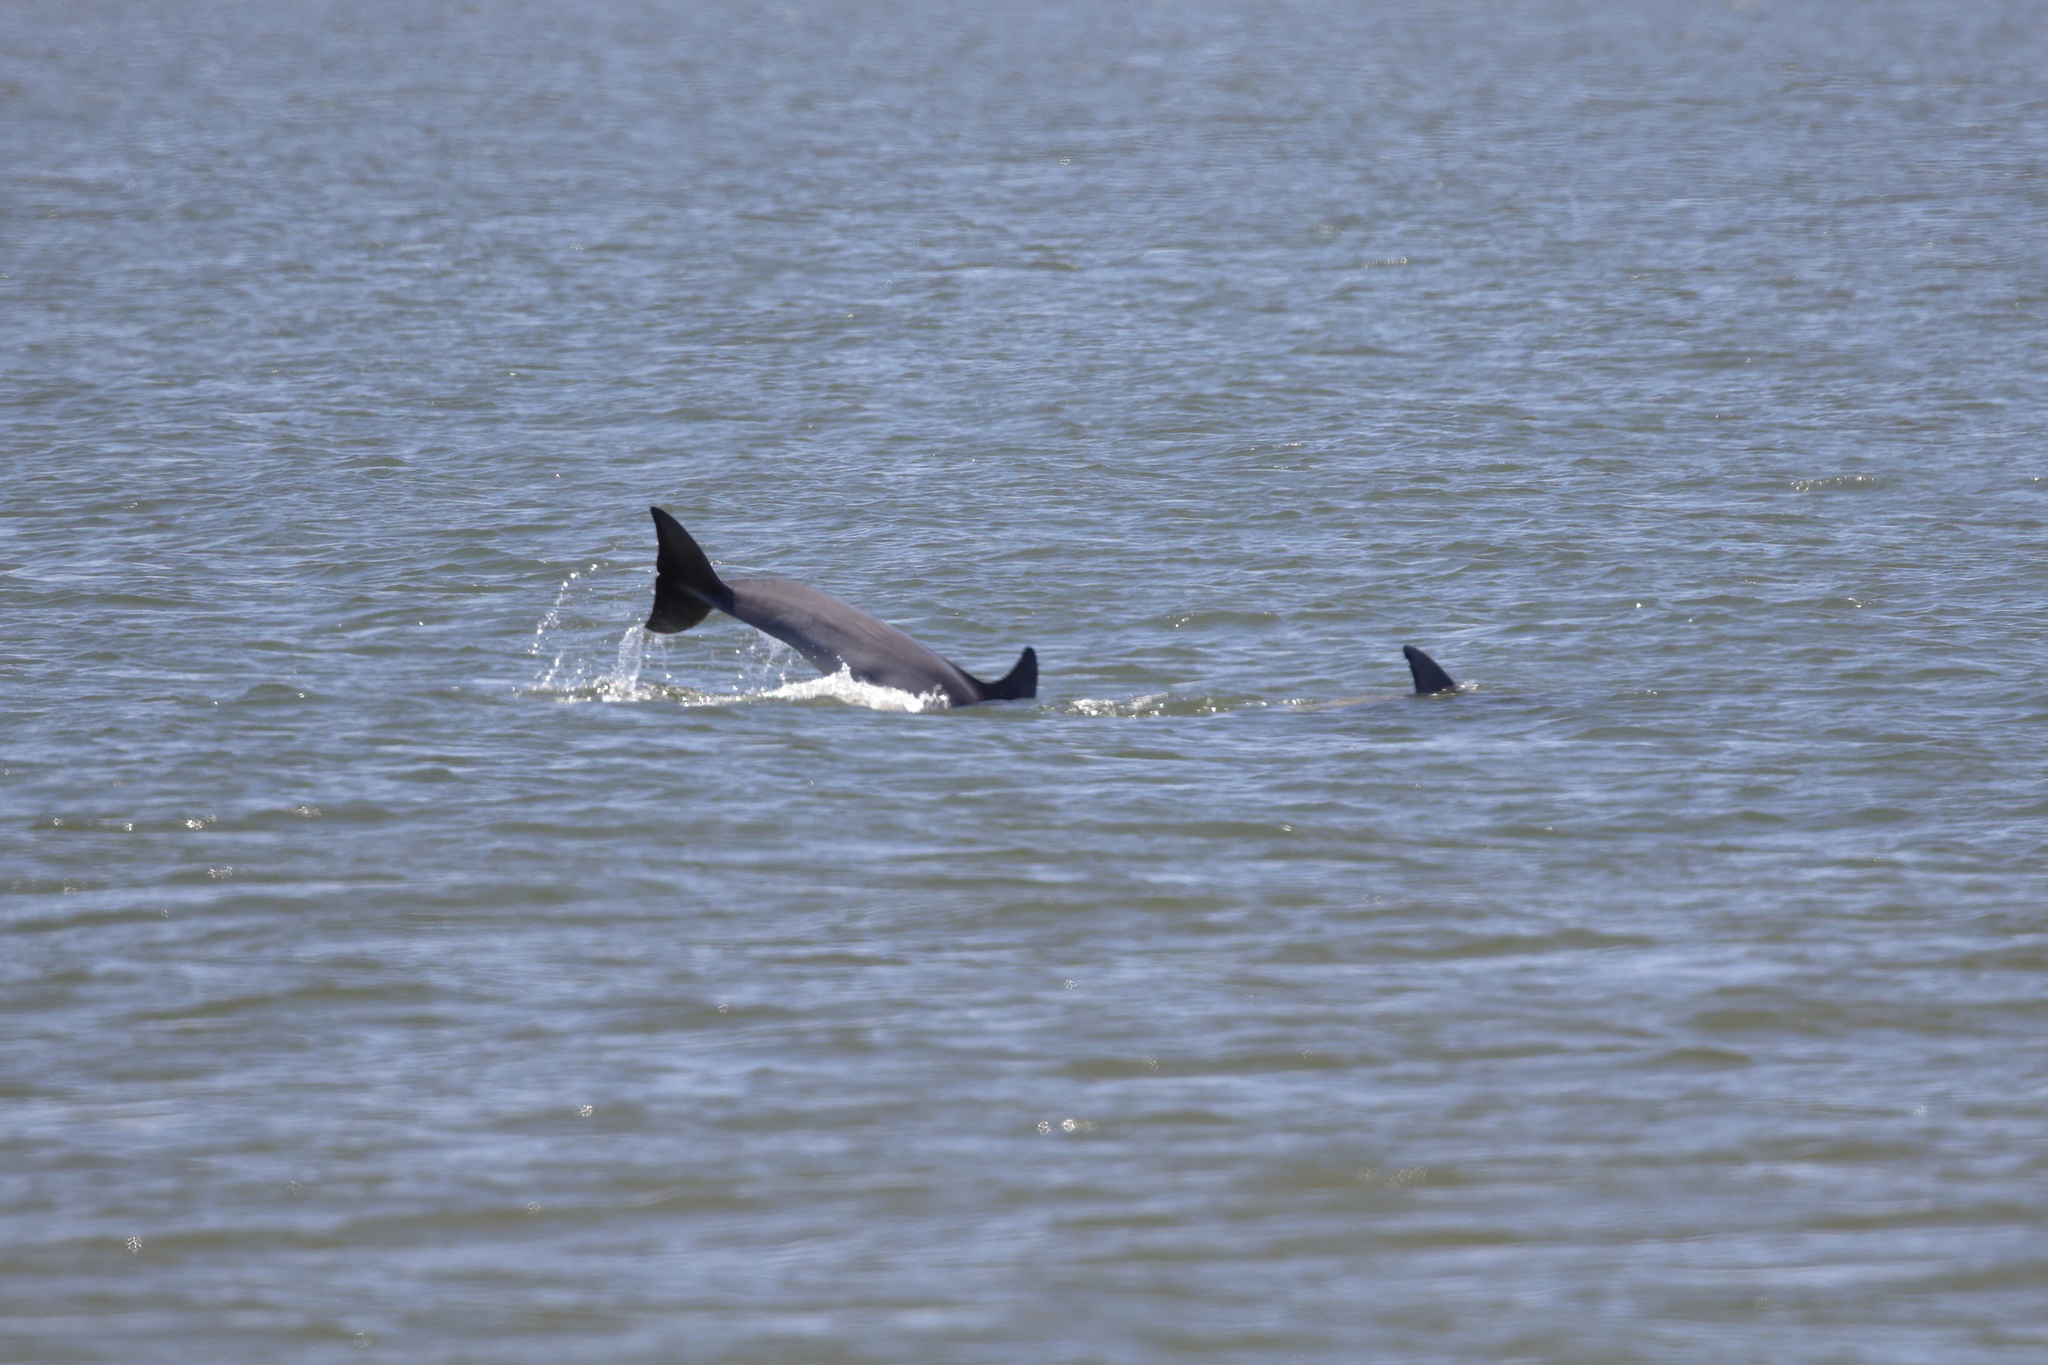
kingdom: Animalia
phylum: Chordata
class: Mammalia
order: Cetacea
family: Delphinidae
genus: Tursiops
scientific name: Tursiops truncatus
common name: Bottlenose dolphin
